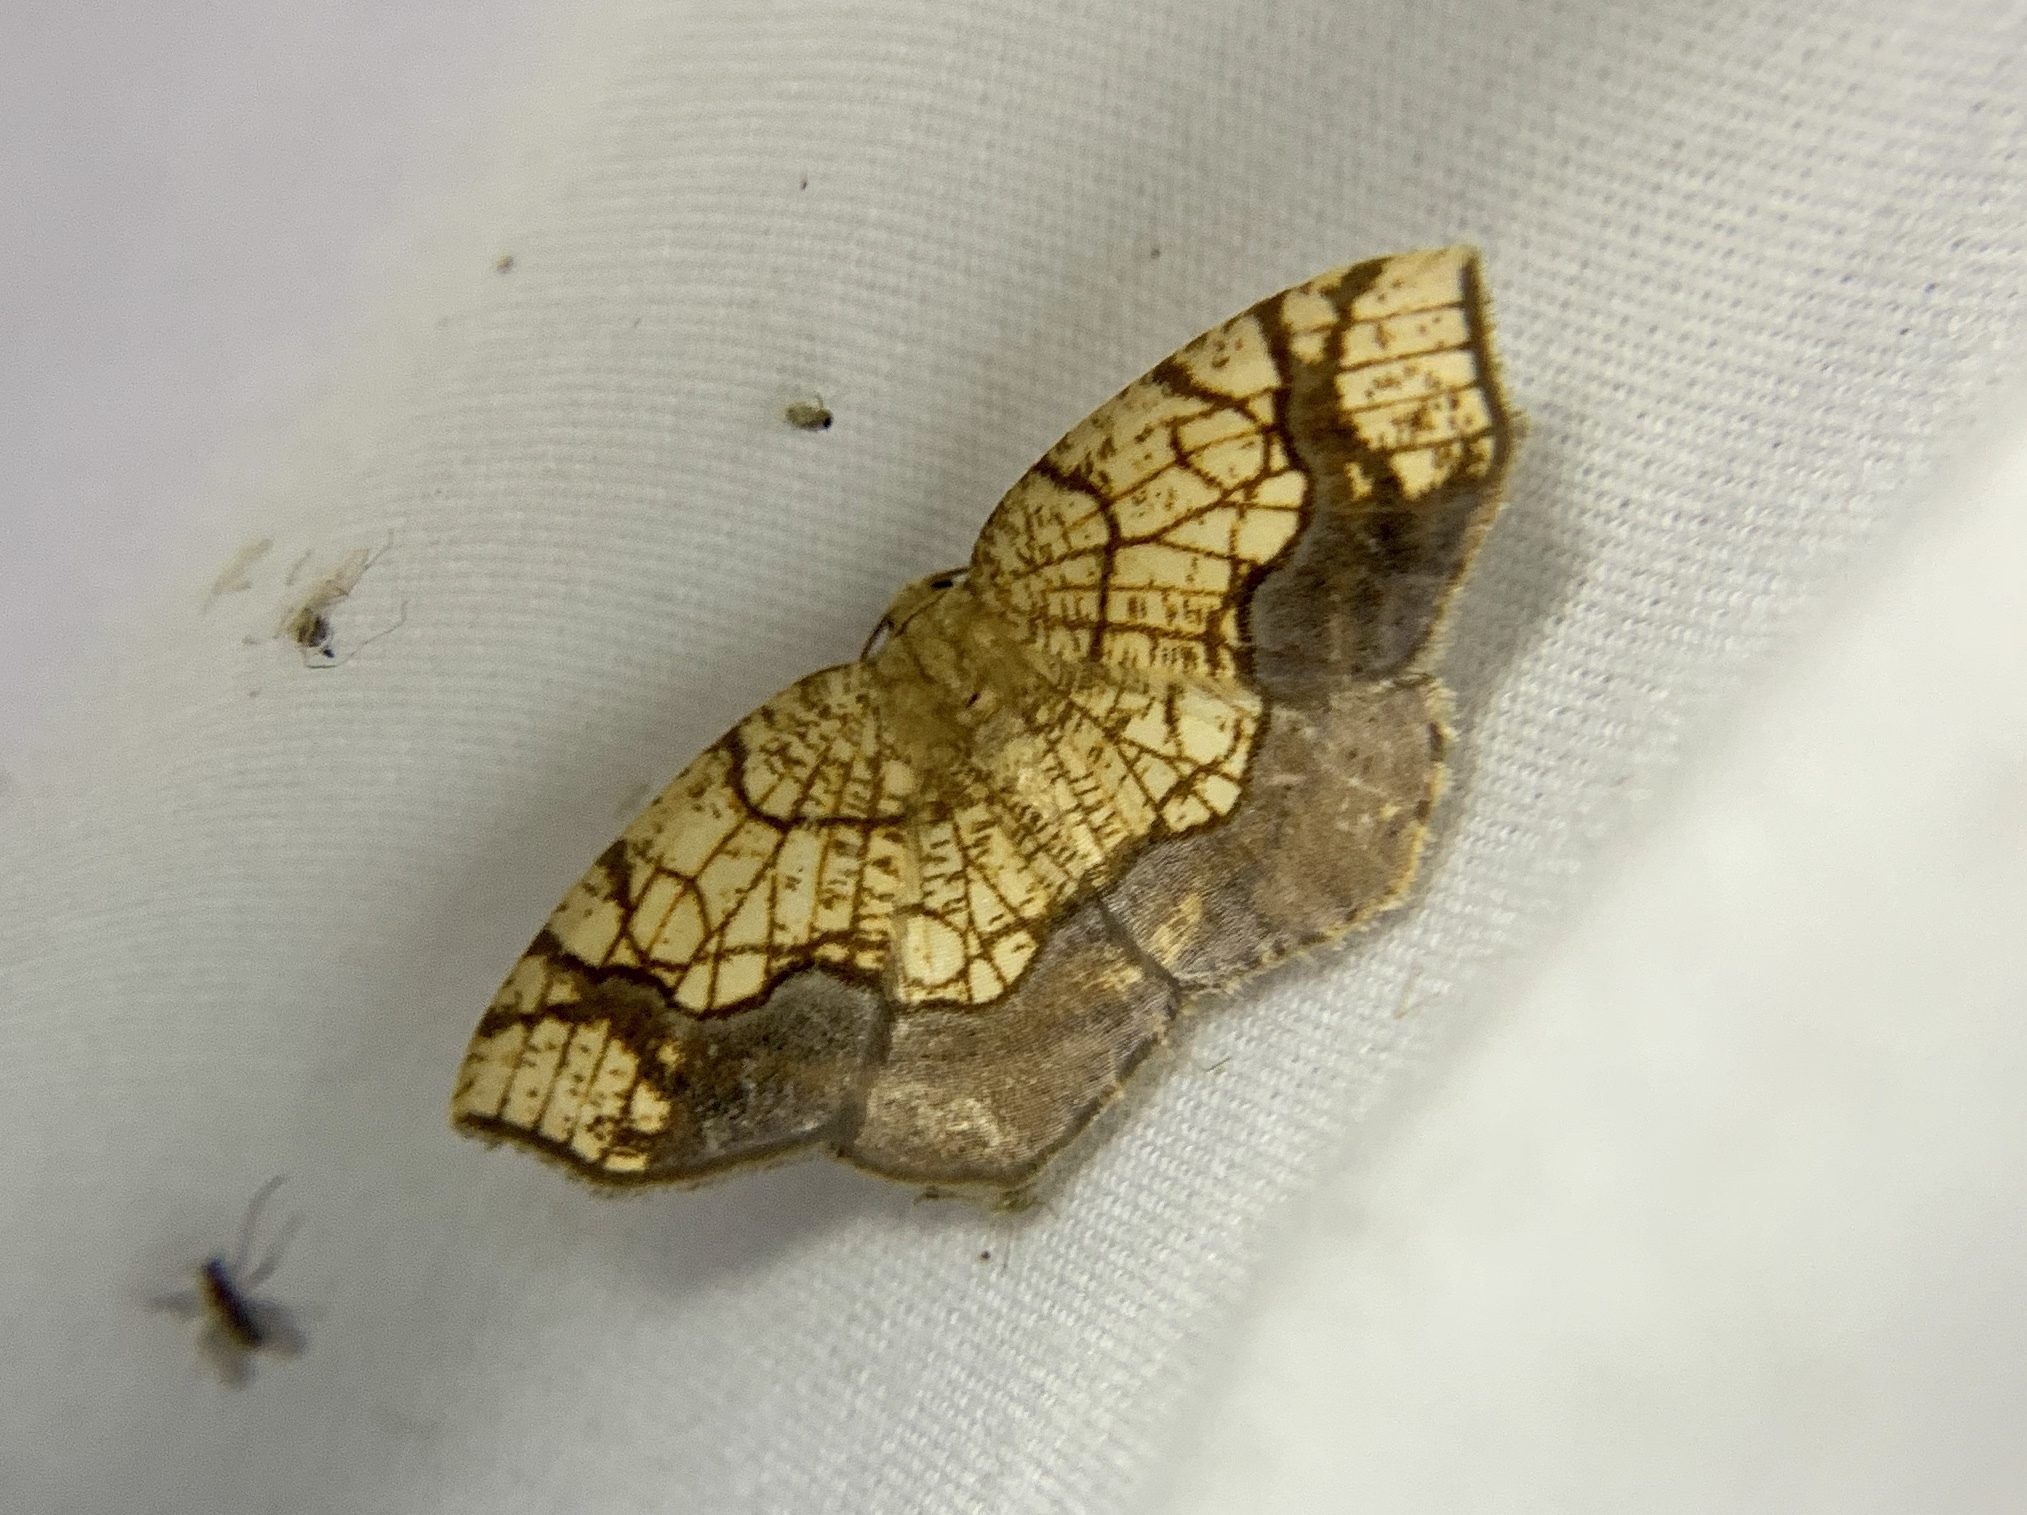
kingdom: Animalia
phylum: Arthropoda
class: Insecta
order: Lepidoptera
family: Geometridae
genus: Nematocampa
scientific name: Nematocampa resistaria
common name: Horned spanworm moth
